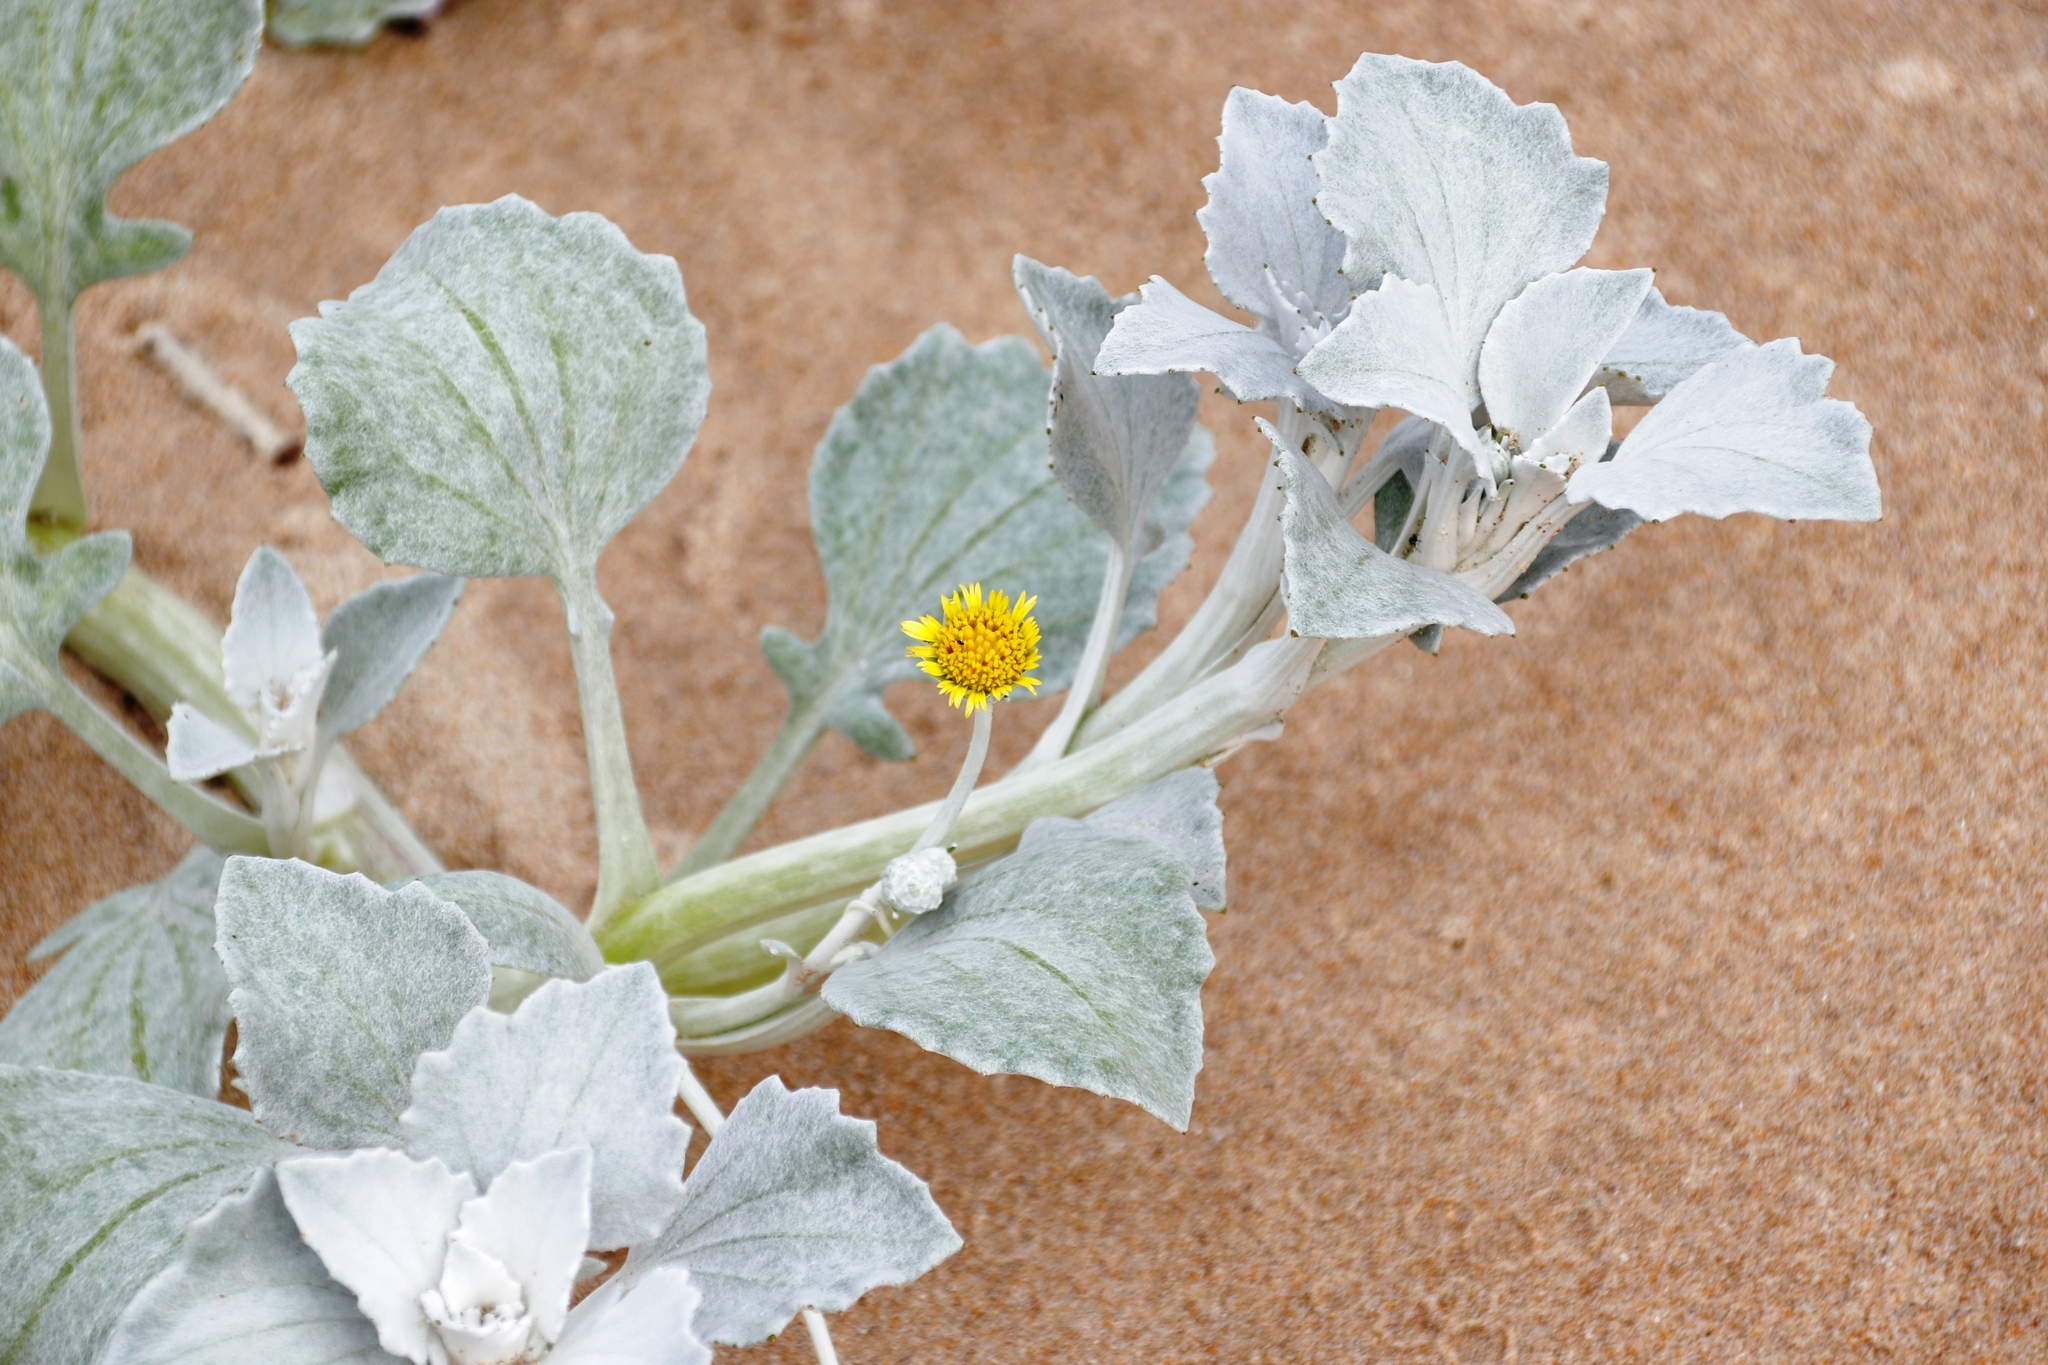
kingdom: Plantae
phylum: Tracheophyta
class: Magnoliopsida
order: Asterales
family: Asteraceae
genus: Arctotheca
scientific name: Arctotheca populifolia
